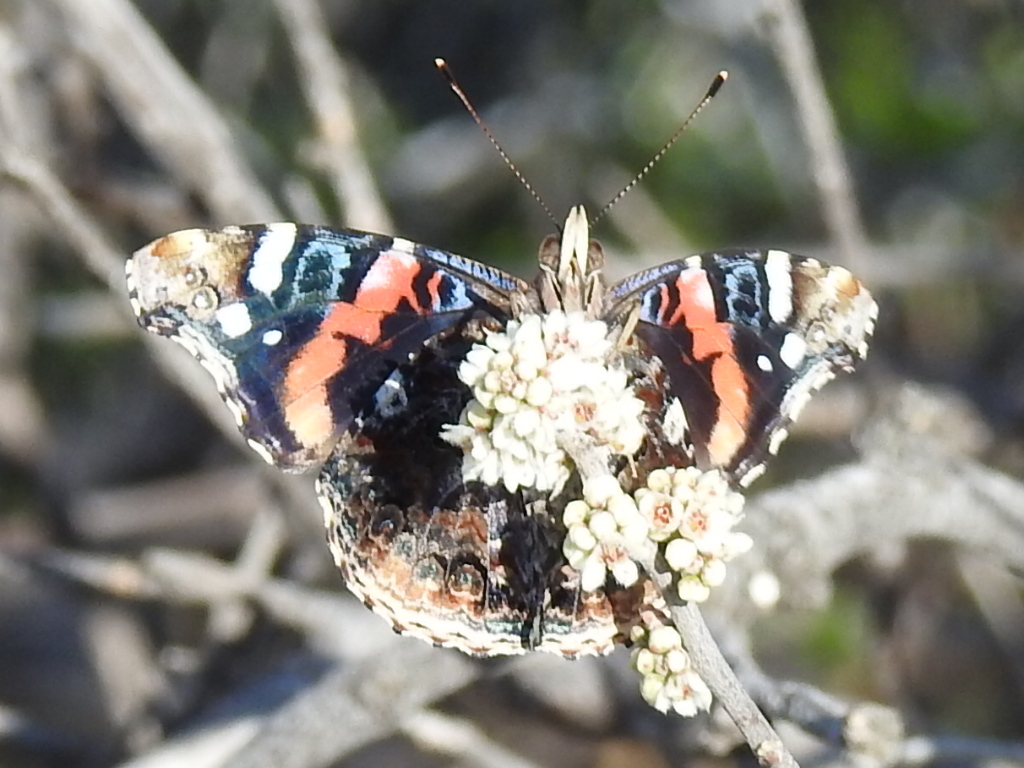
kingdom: Animalia
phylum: Arthropoda
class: Insecta
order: Lepidoptera
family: Nymphalidae
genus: Vanessa
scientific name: Vanessa atalanta
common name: Red admiral
